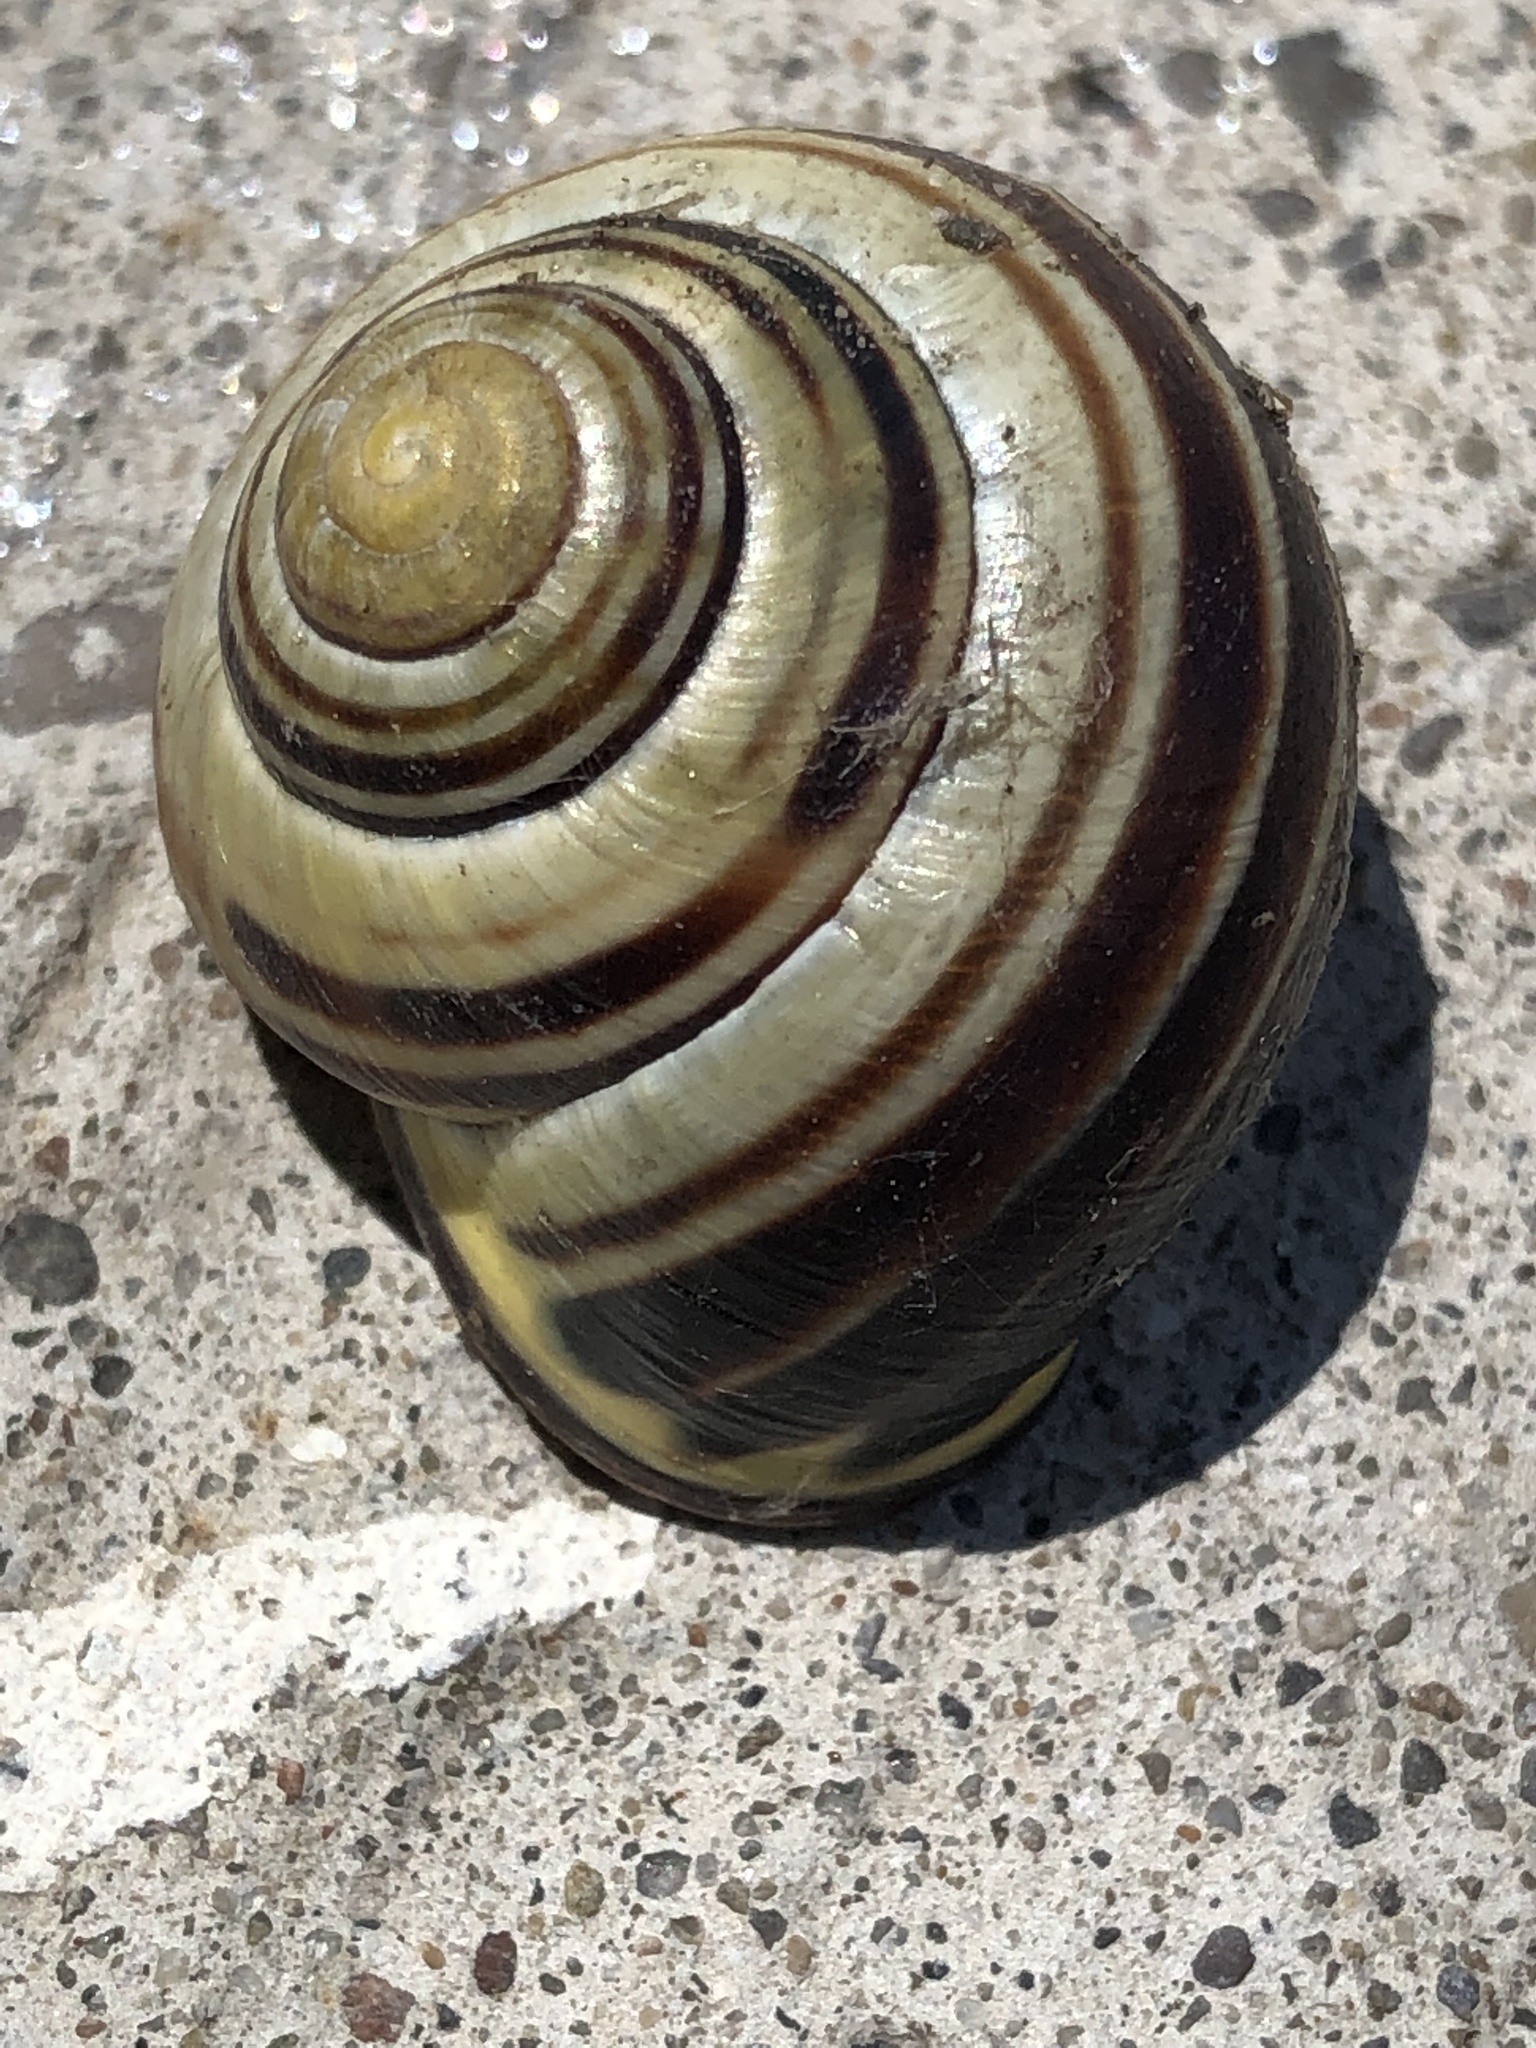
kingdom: Animalia
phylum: Mollusca
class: Gastropoda
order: Stylommatophora
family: Helicidae
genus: Cepaea
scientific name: Cepaea nemoralis
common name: Grovesnail
